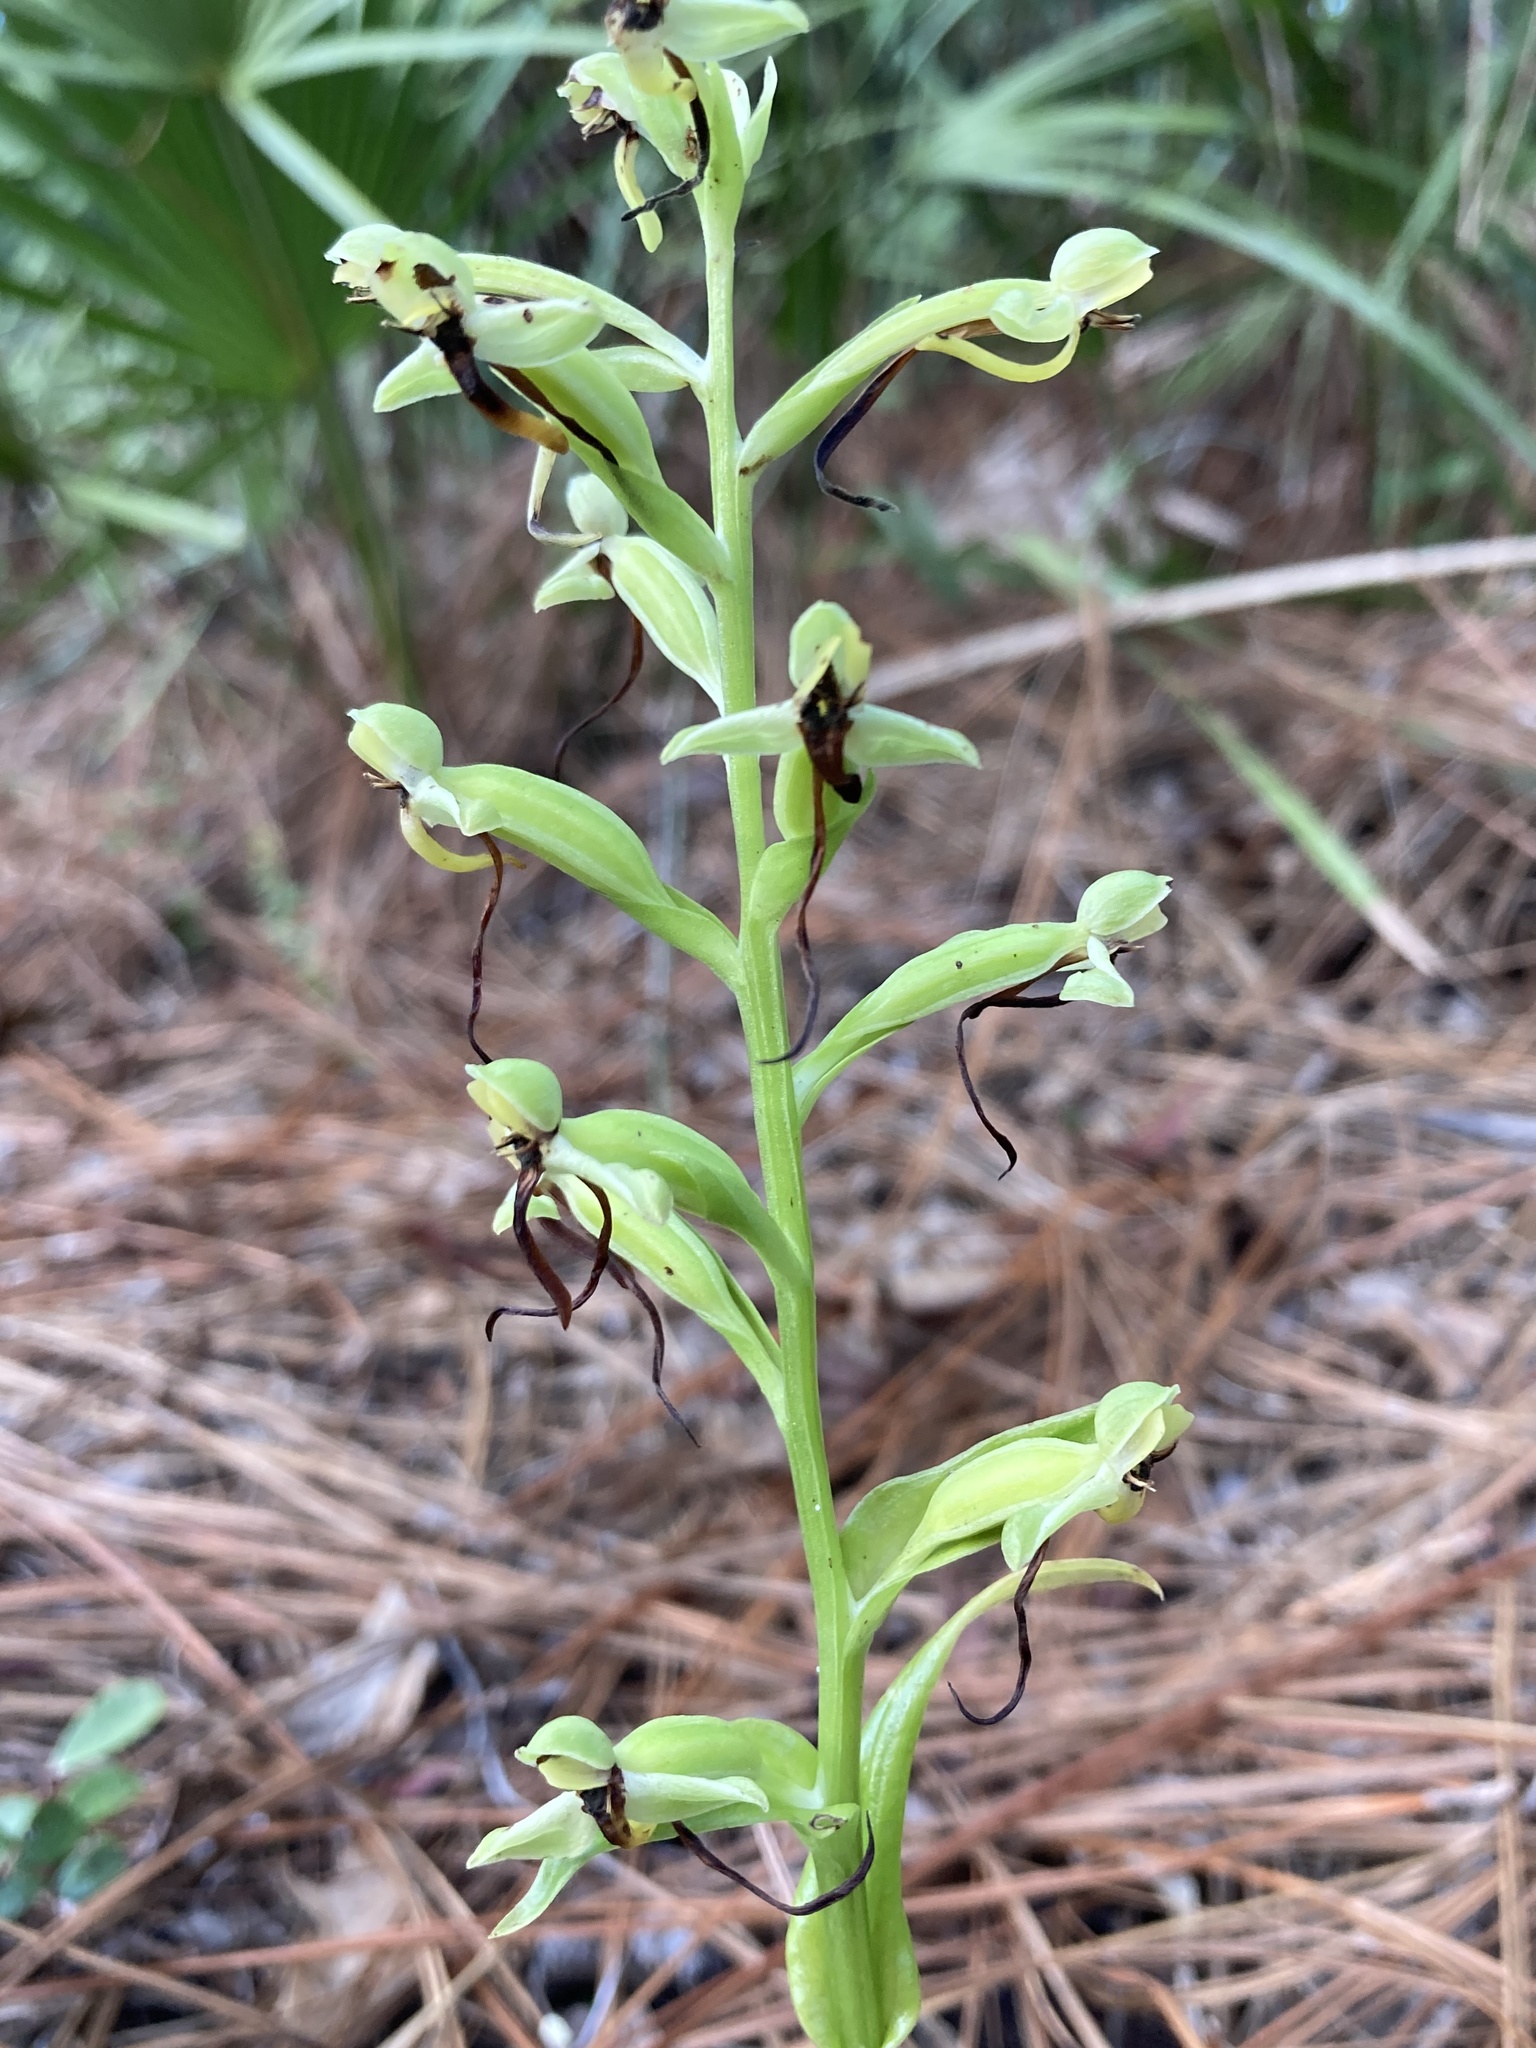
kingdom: Plantae
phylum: Tracheophyta
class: Liliopsida
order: Asparagales
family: Orchidaceae
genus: Habenaria
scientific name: Habenaria floribunda
